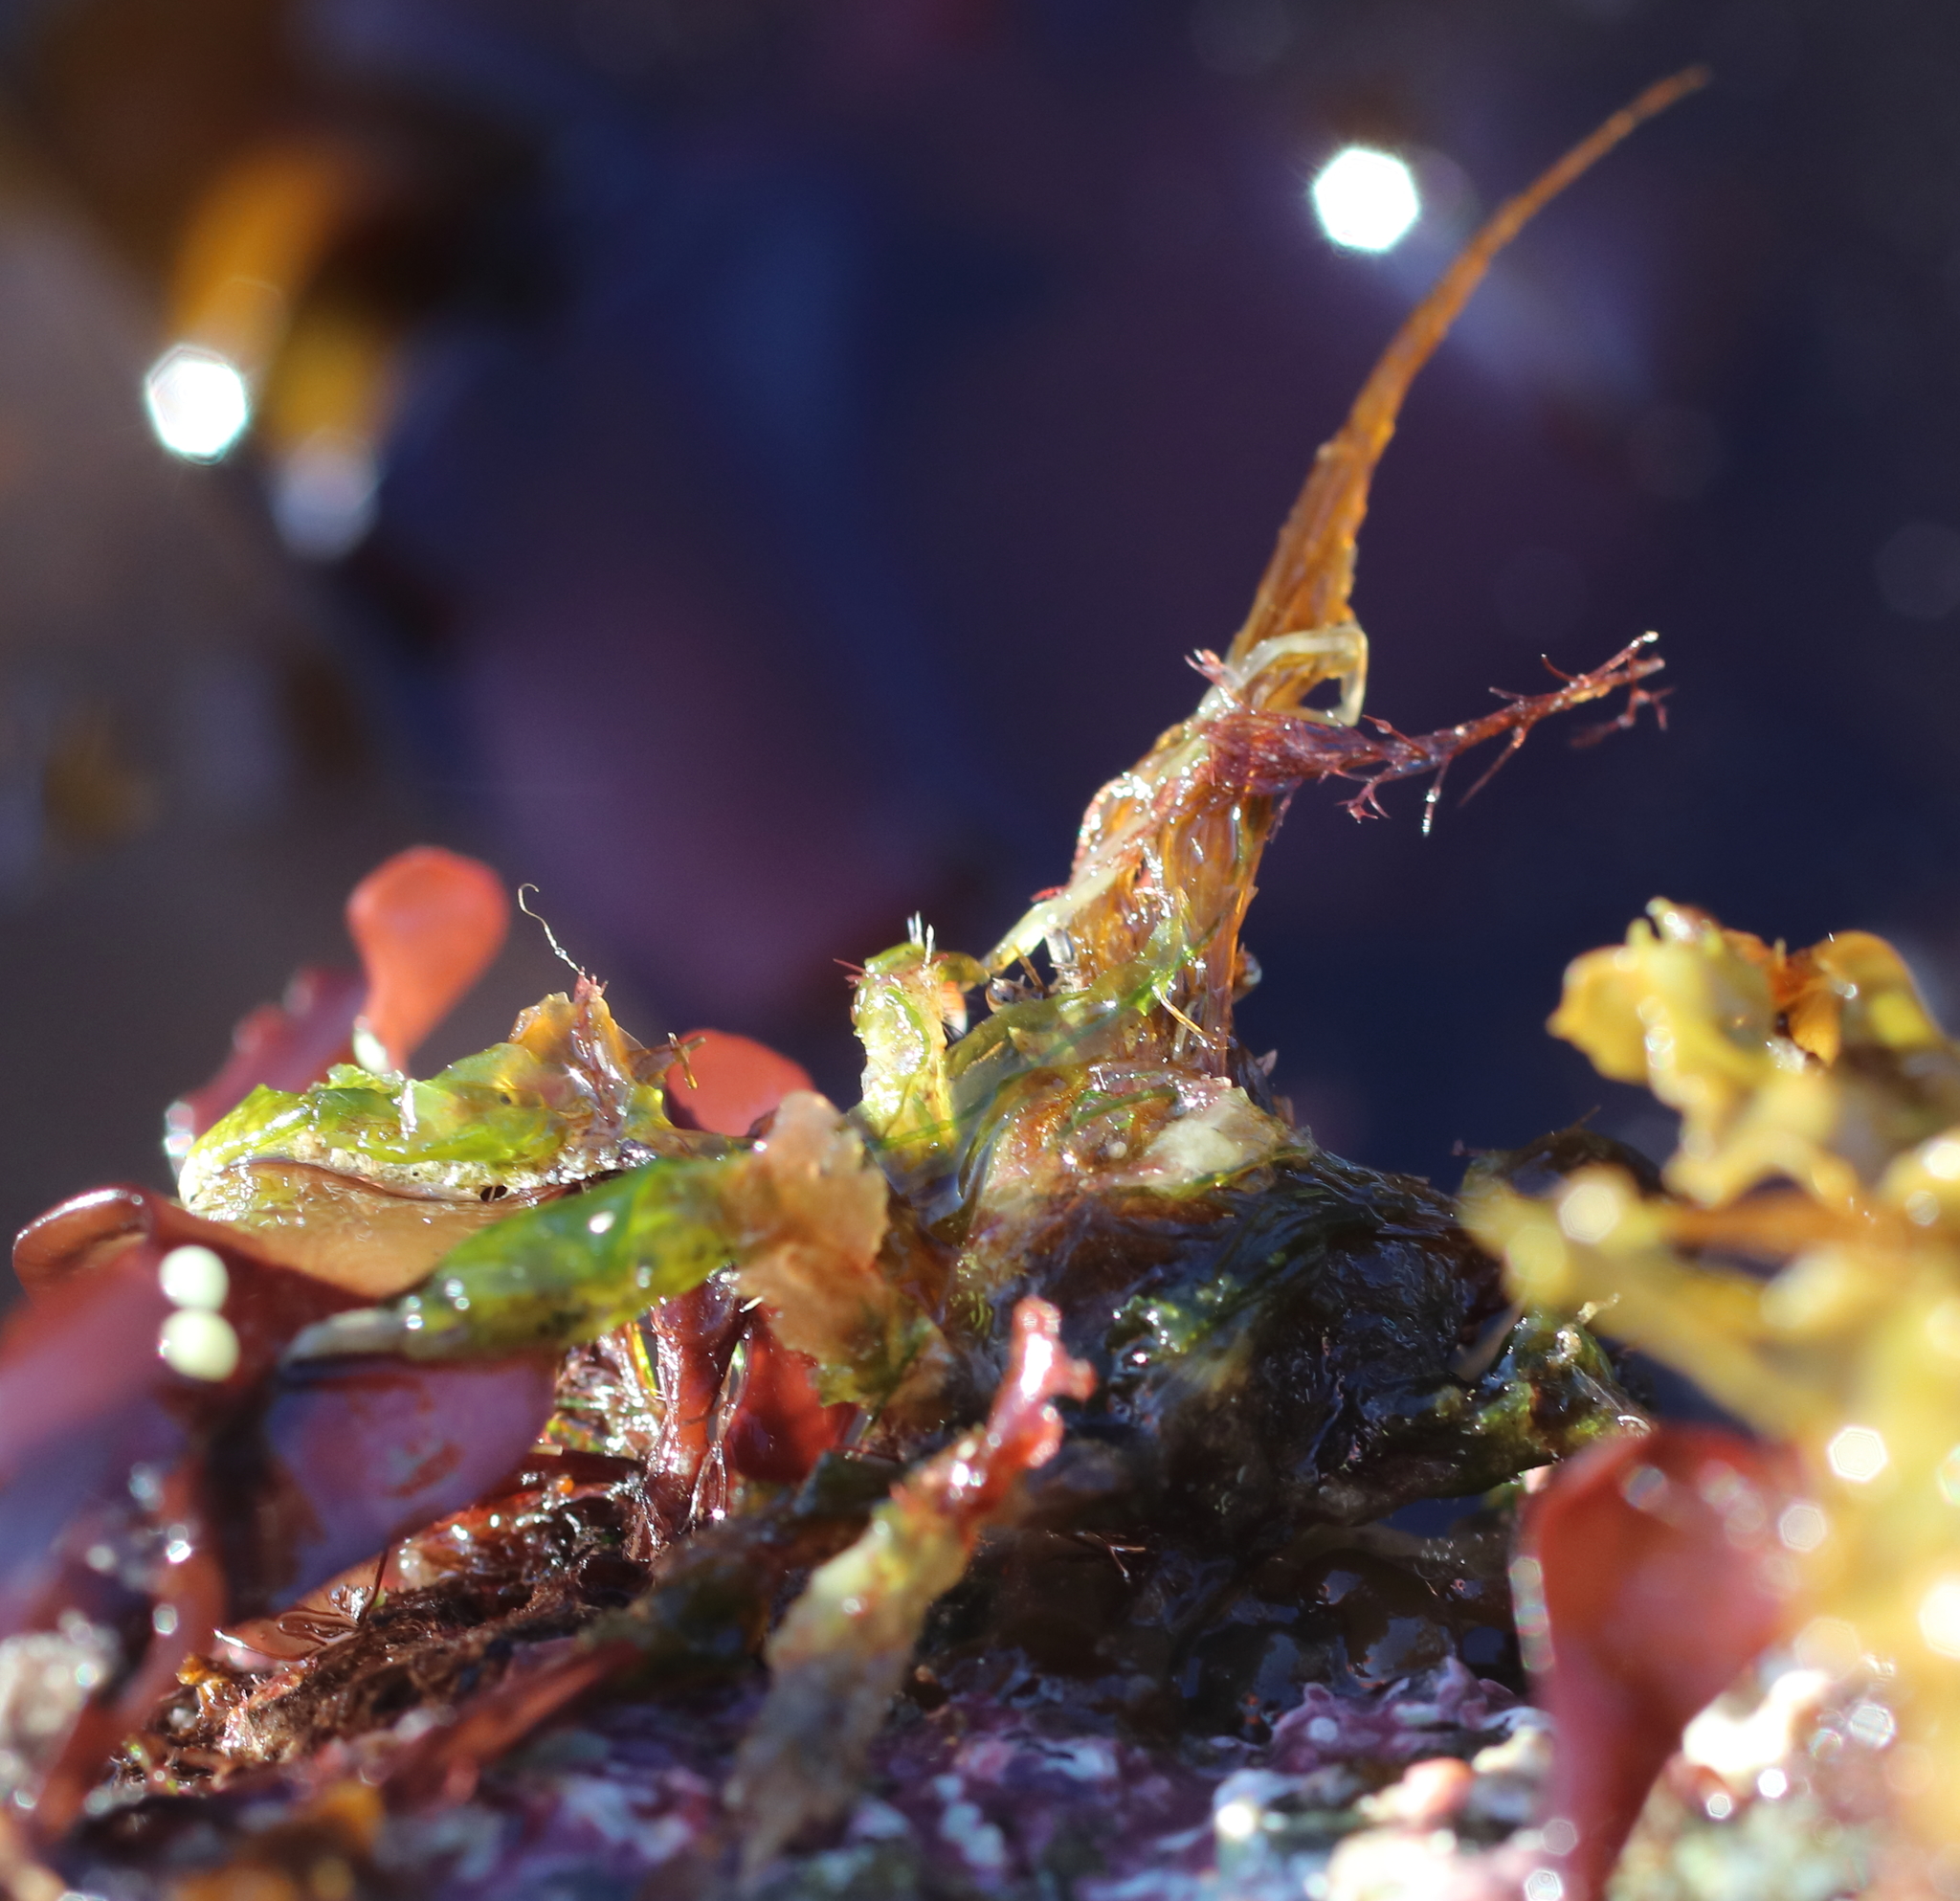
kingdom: Animalia
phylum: Arthropoda
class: Malacostraca
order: Decapoda
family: Oregoniidae
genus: Oregonia
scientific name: Oregonia gracilis
